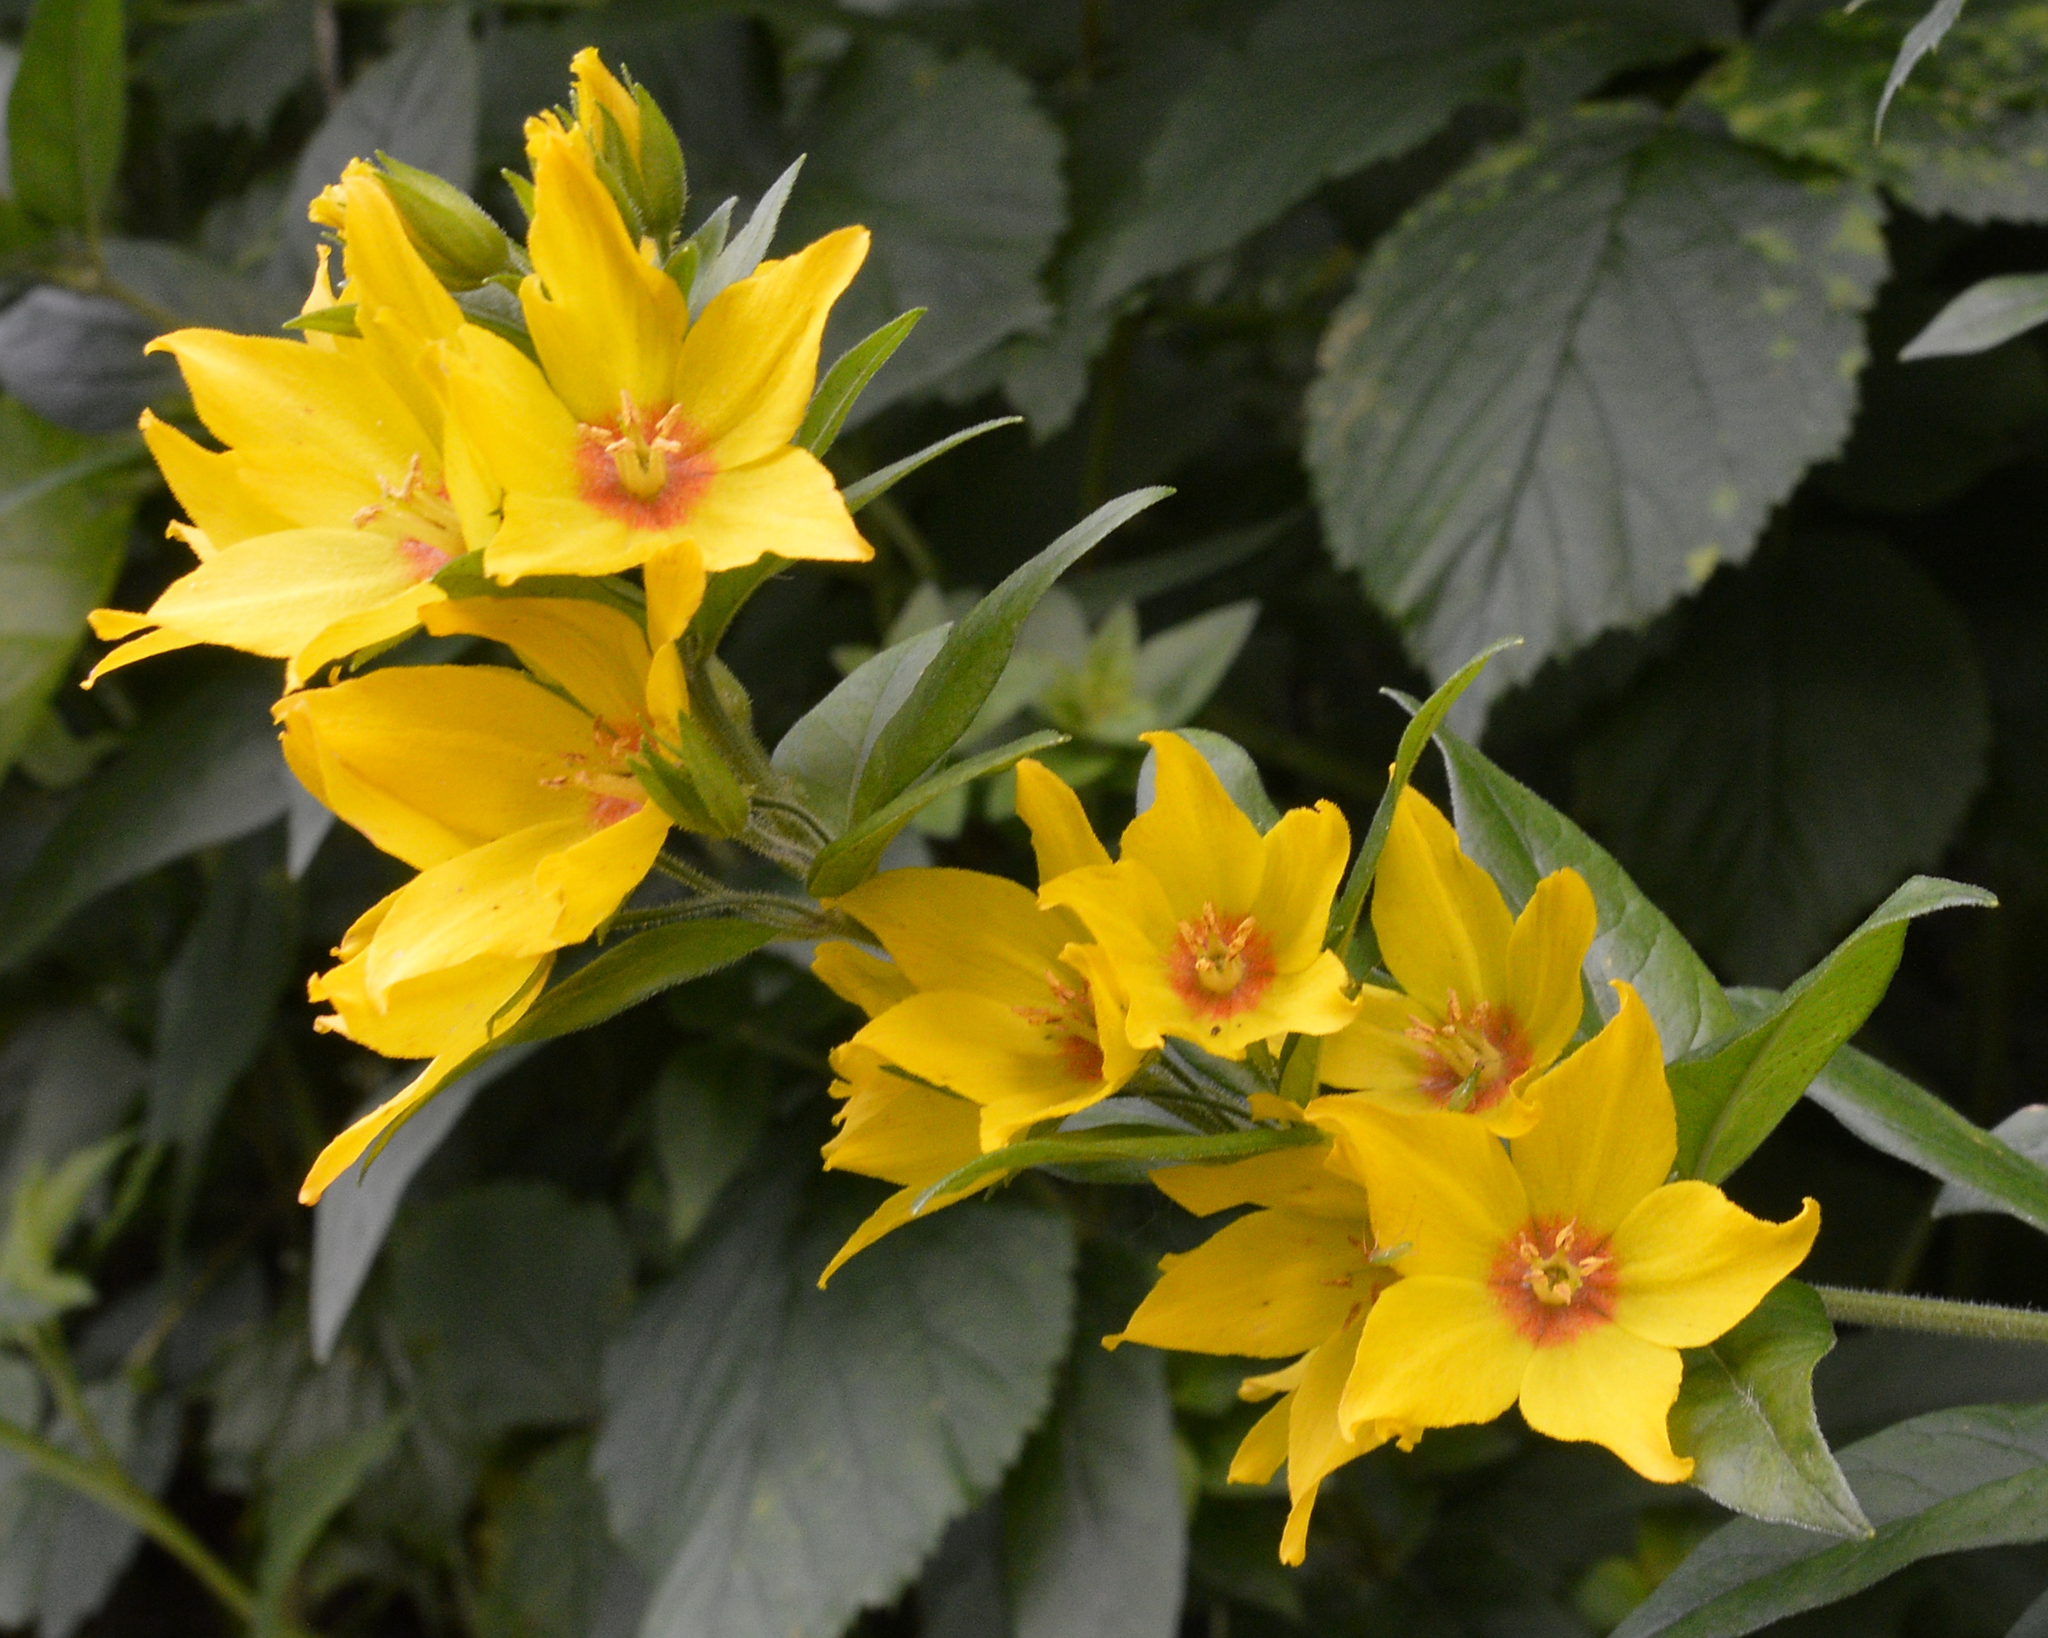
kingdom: Plantae
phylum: Tracheophyta
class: Magnoliopsida
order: Ericales
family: Primulaceae
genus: Lysimachia
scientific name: Lysimachia punctata
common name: Dotted loosestrife
